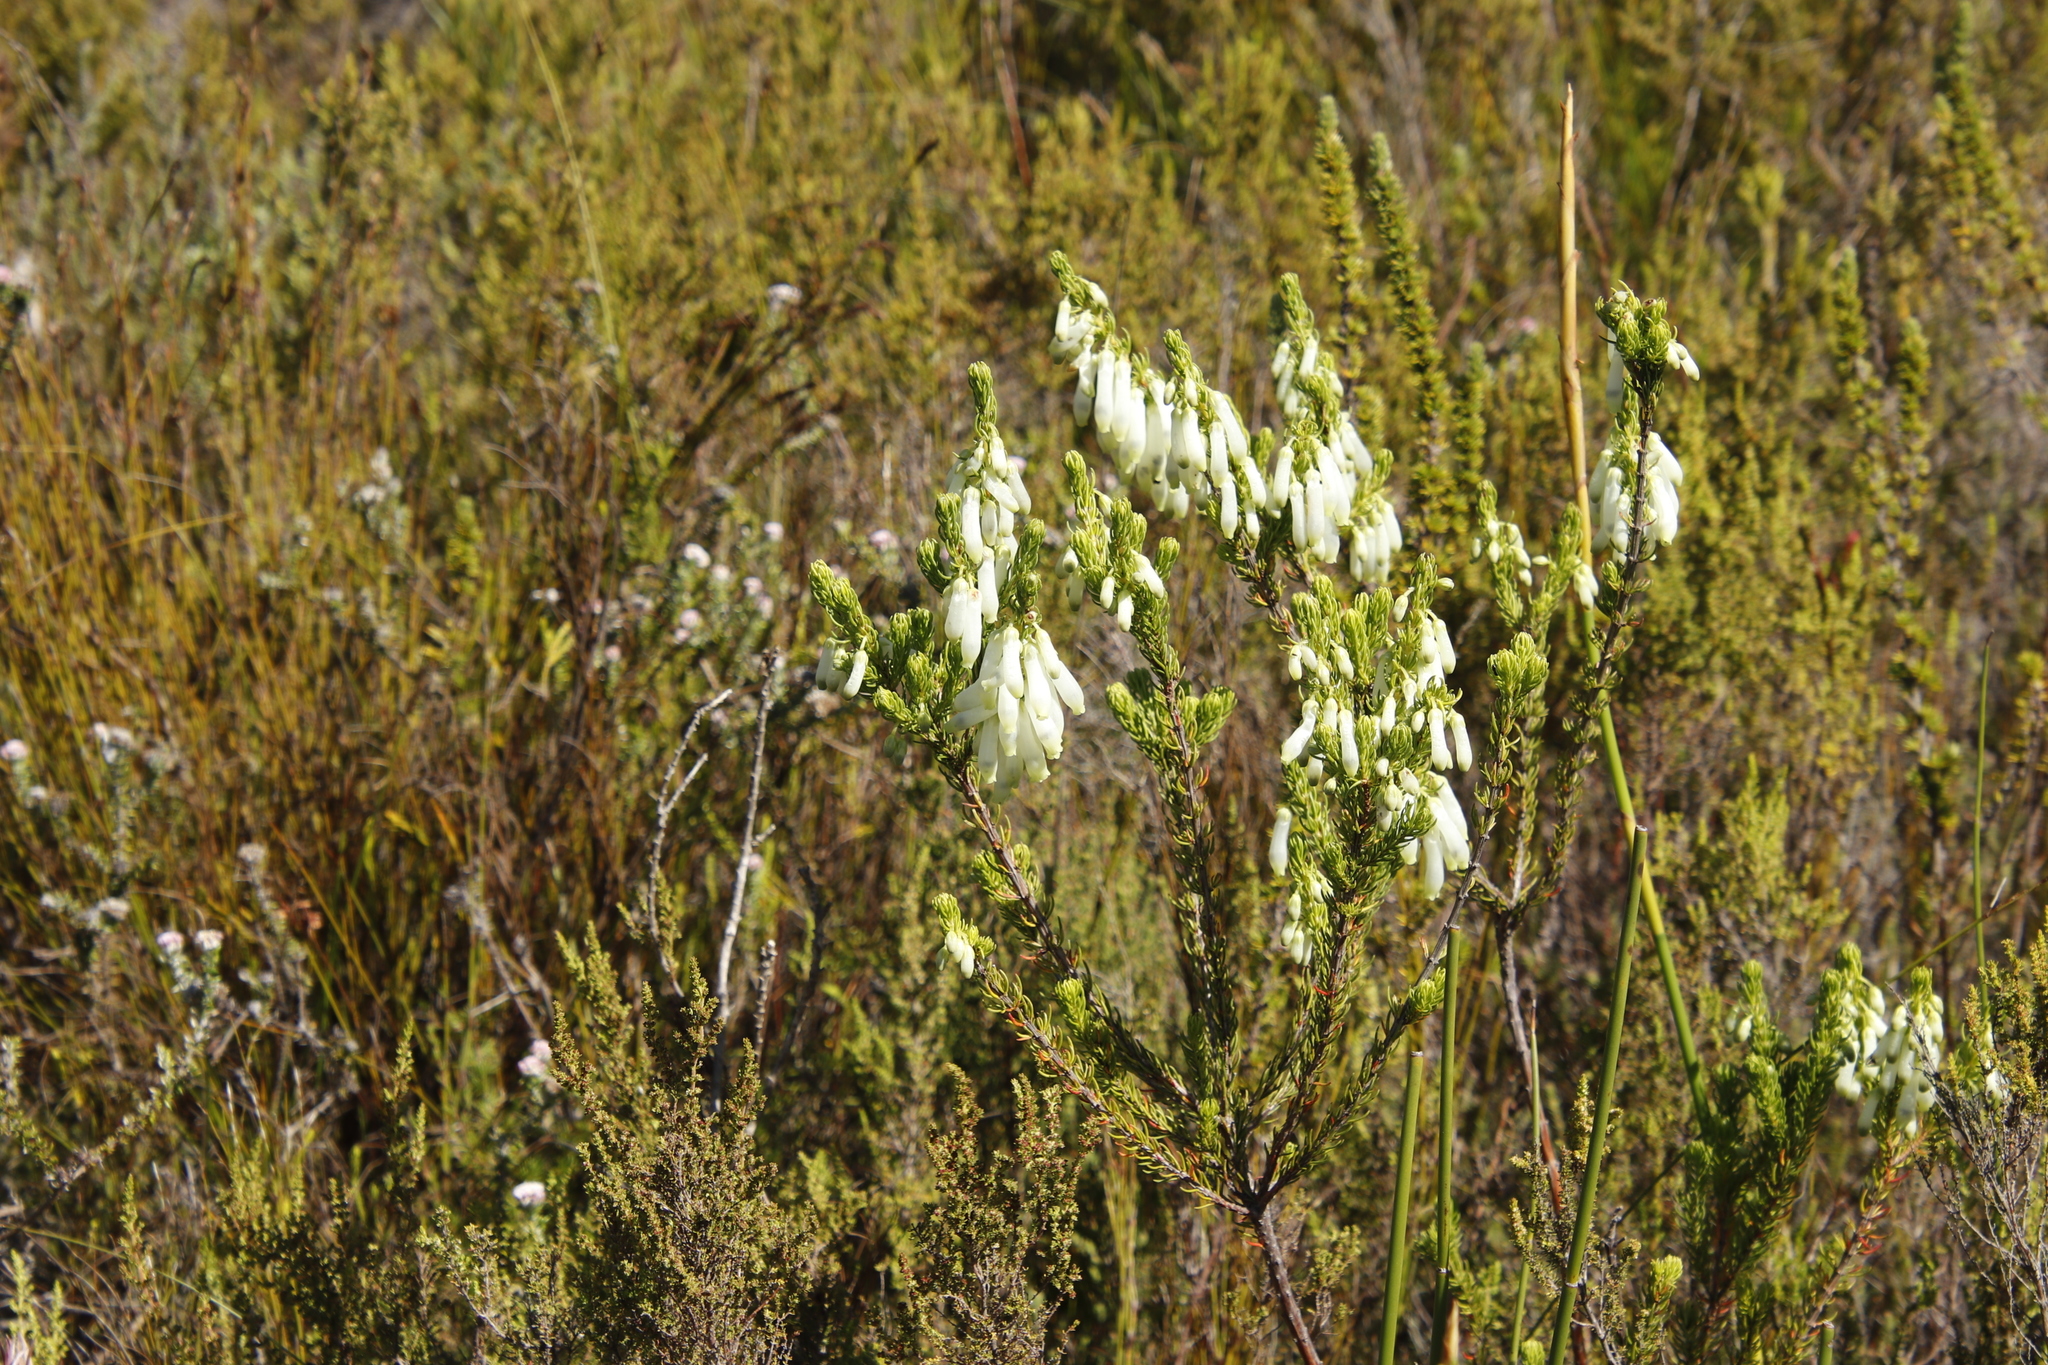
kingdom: Plantae
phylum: Tracheophyta
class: Magnoliopsida
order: Ericales
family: Ericaceae
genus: Erica
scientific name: Erica mammosa
